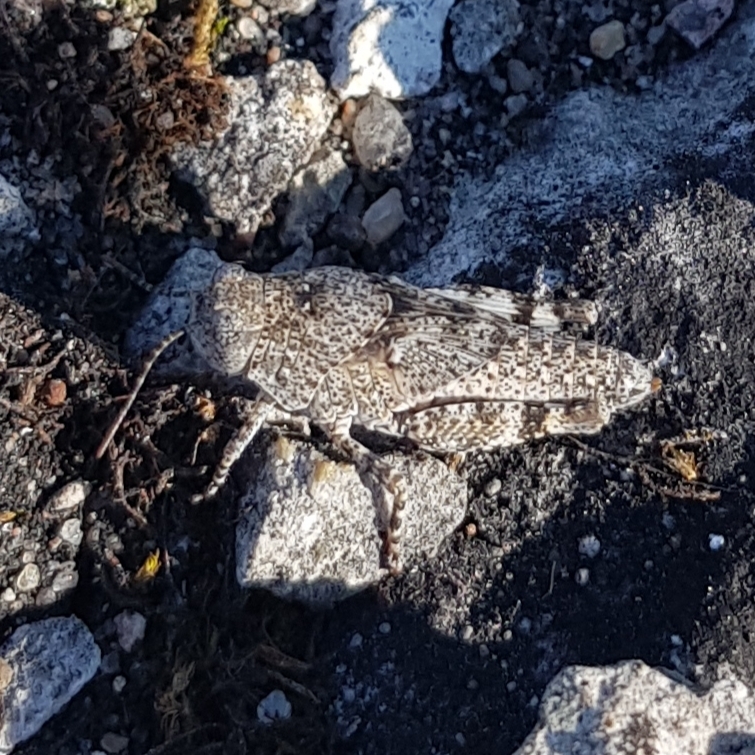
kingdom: Animalia
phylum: Arthropoda
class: Insecta
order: Orthoptera
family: Acrididae
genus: Sphingonotus
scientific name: Sphingonotus caerulans
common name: Blue-winged locust
